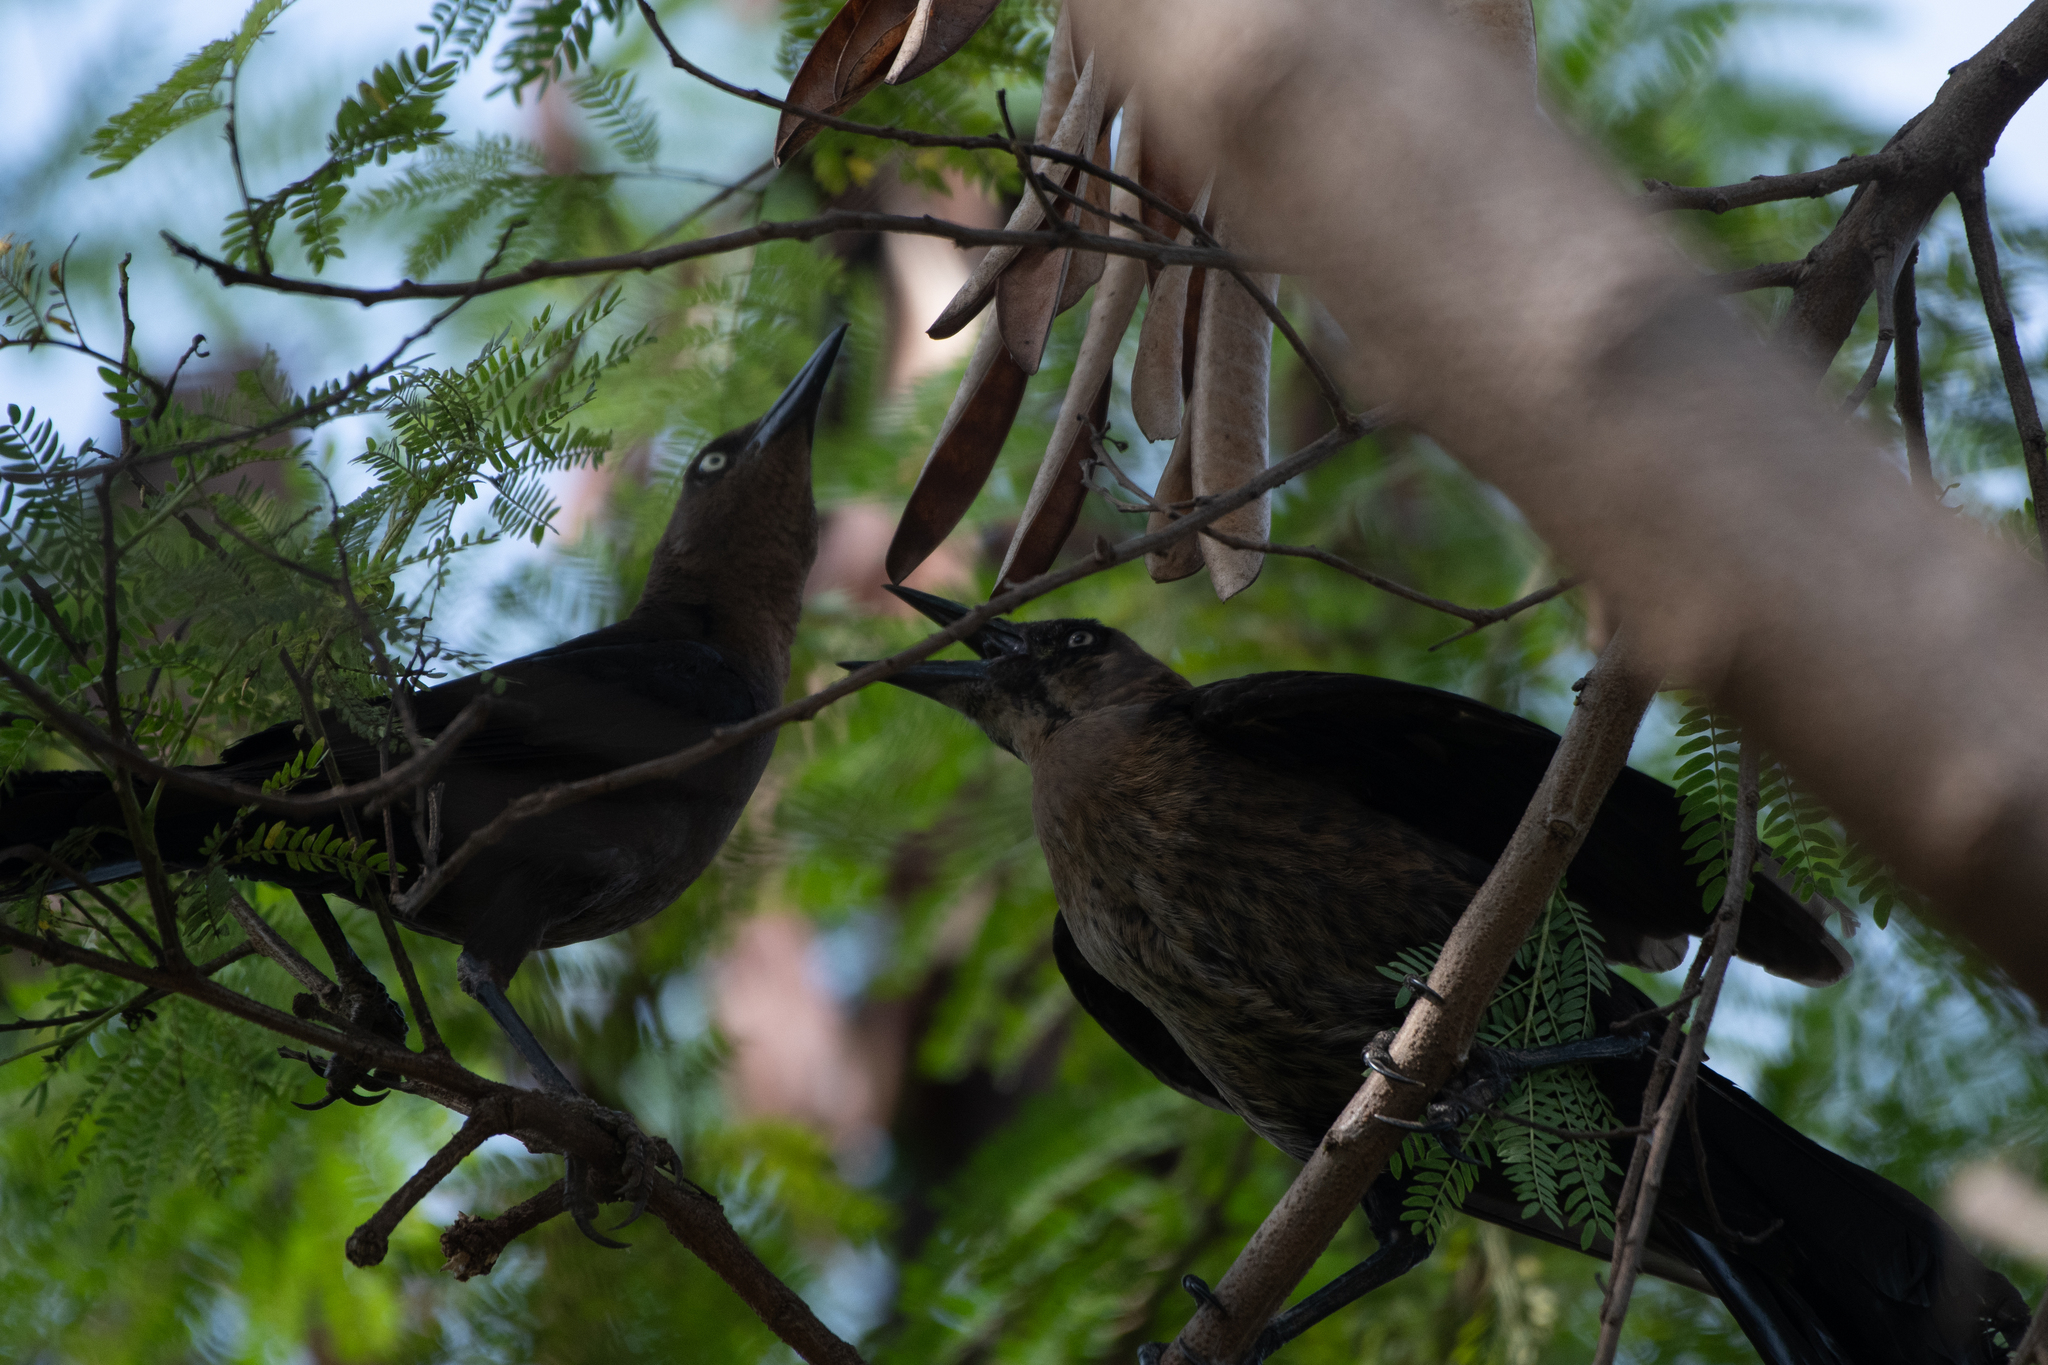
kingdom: Animalia
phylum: Chordata
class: Aves
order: Passeriformes
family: Icteridae
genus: Quiscalus
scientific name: Quiscalus mexicanus
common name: Great-tailed grackle
